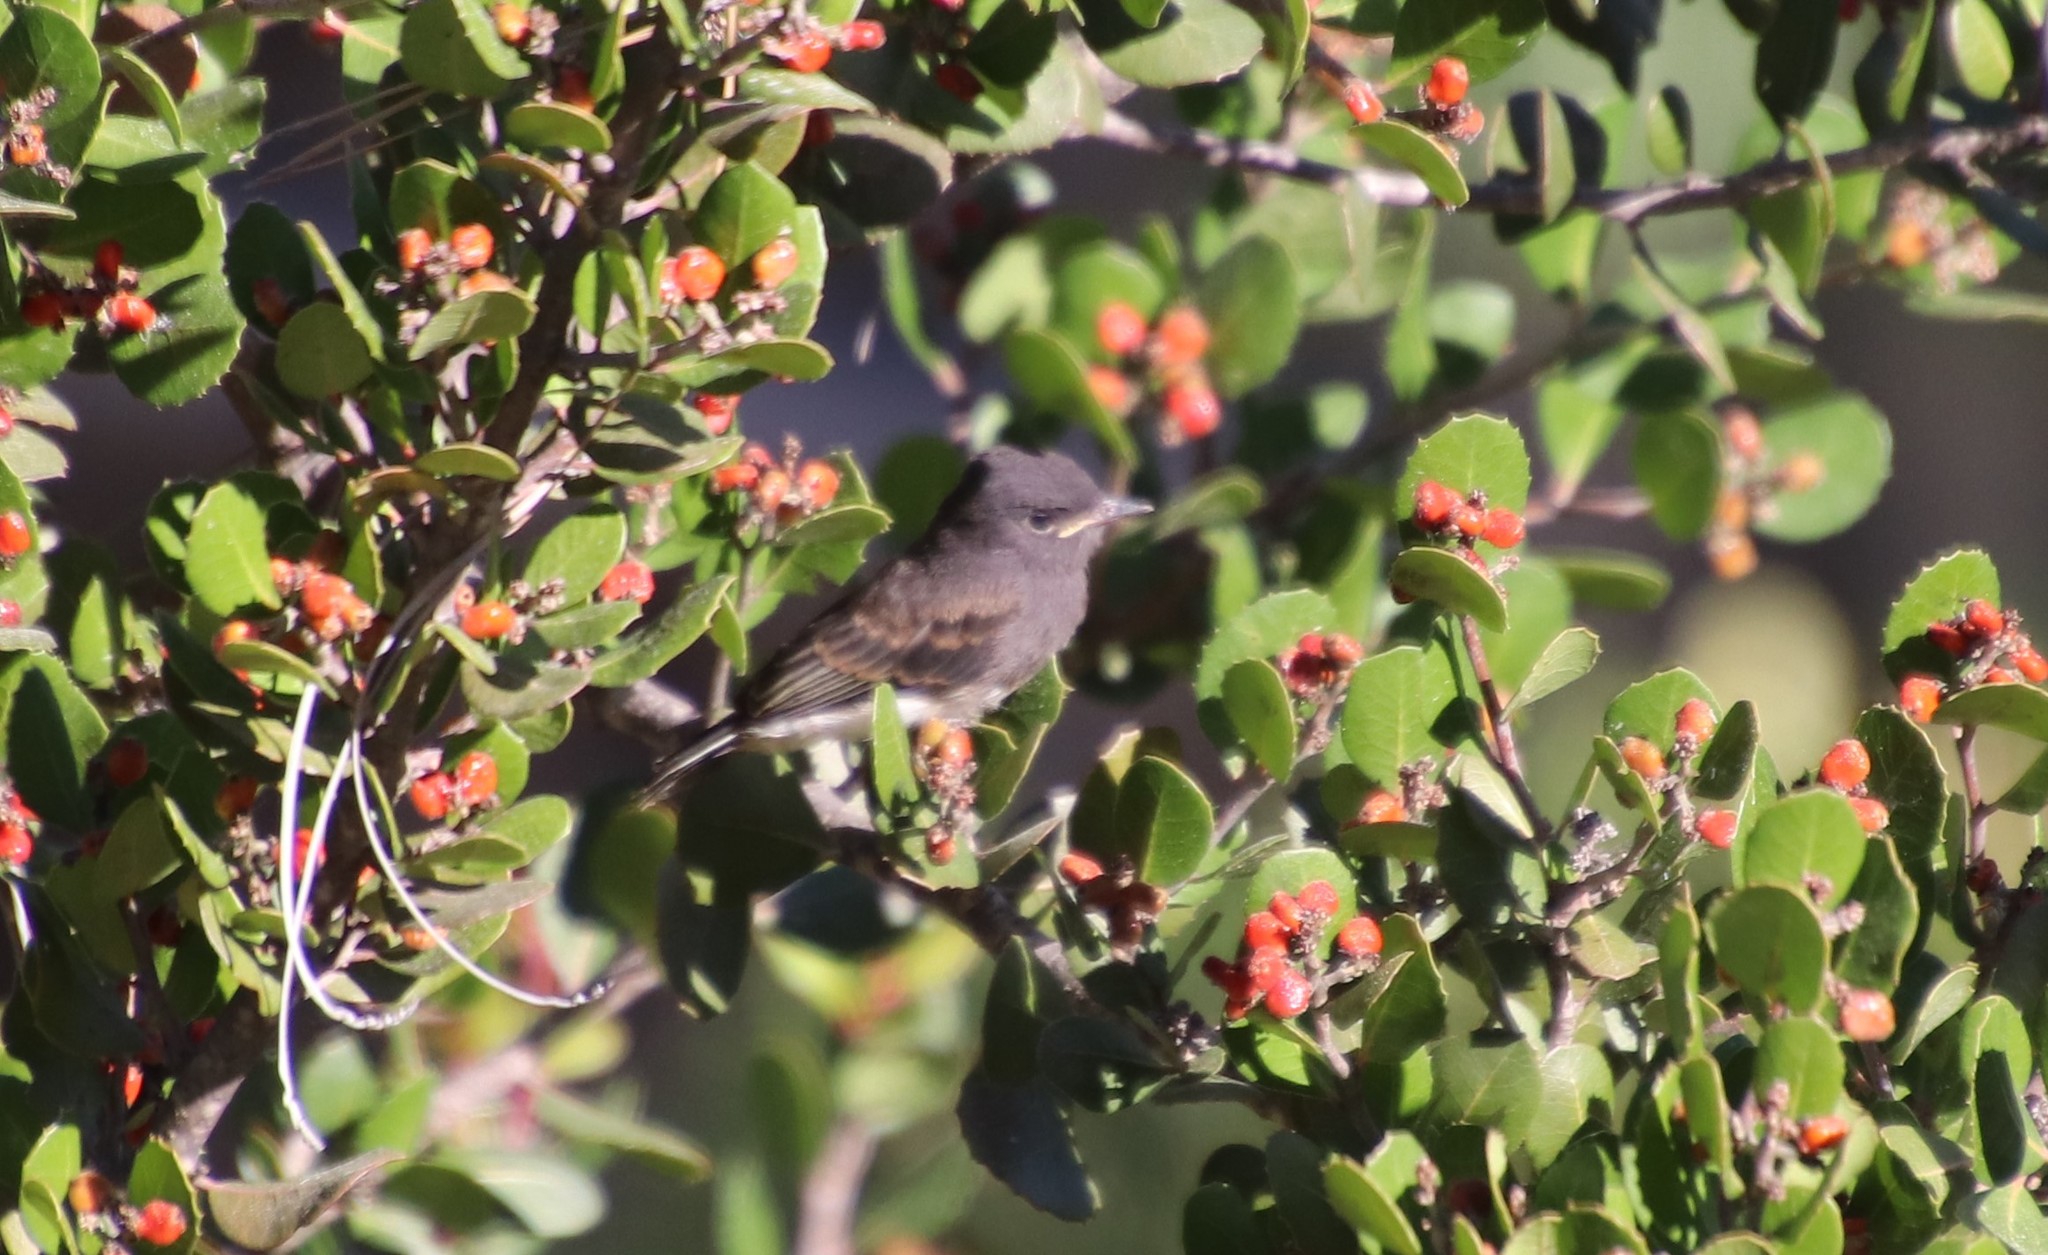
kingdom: Animalia
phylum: Chordata
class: Aves
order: Passeriformes
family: Tyrannidae
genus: Sayornis
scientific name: Sayornis nigricans
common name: Black phoebe
